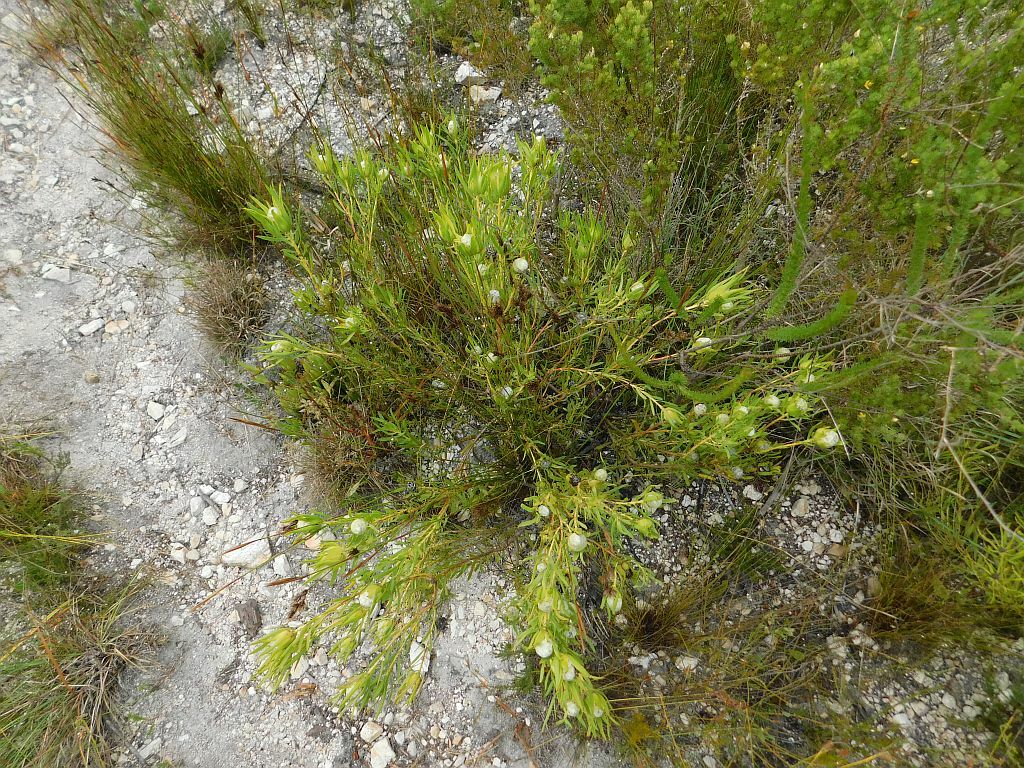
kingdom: Plantae
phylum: Tracheophyta
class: Magnoliopsida
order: Proteales
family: Proteaceae
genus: Leucadendron
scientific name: Leucadendron salignum
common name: Common sunshine conebush
